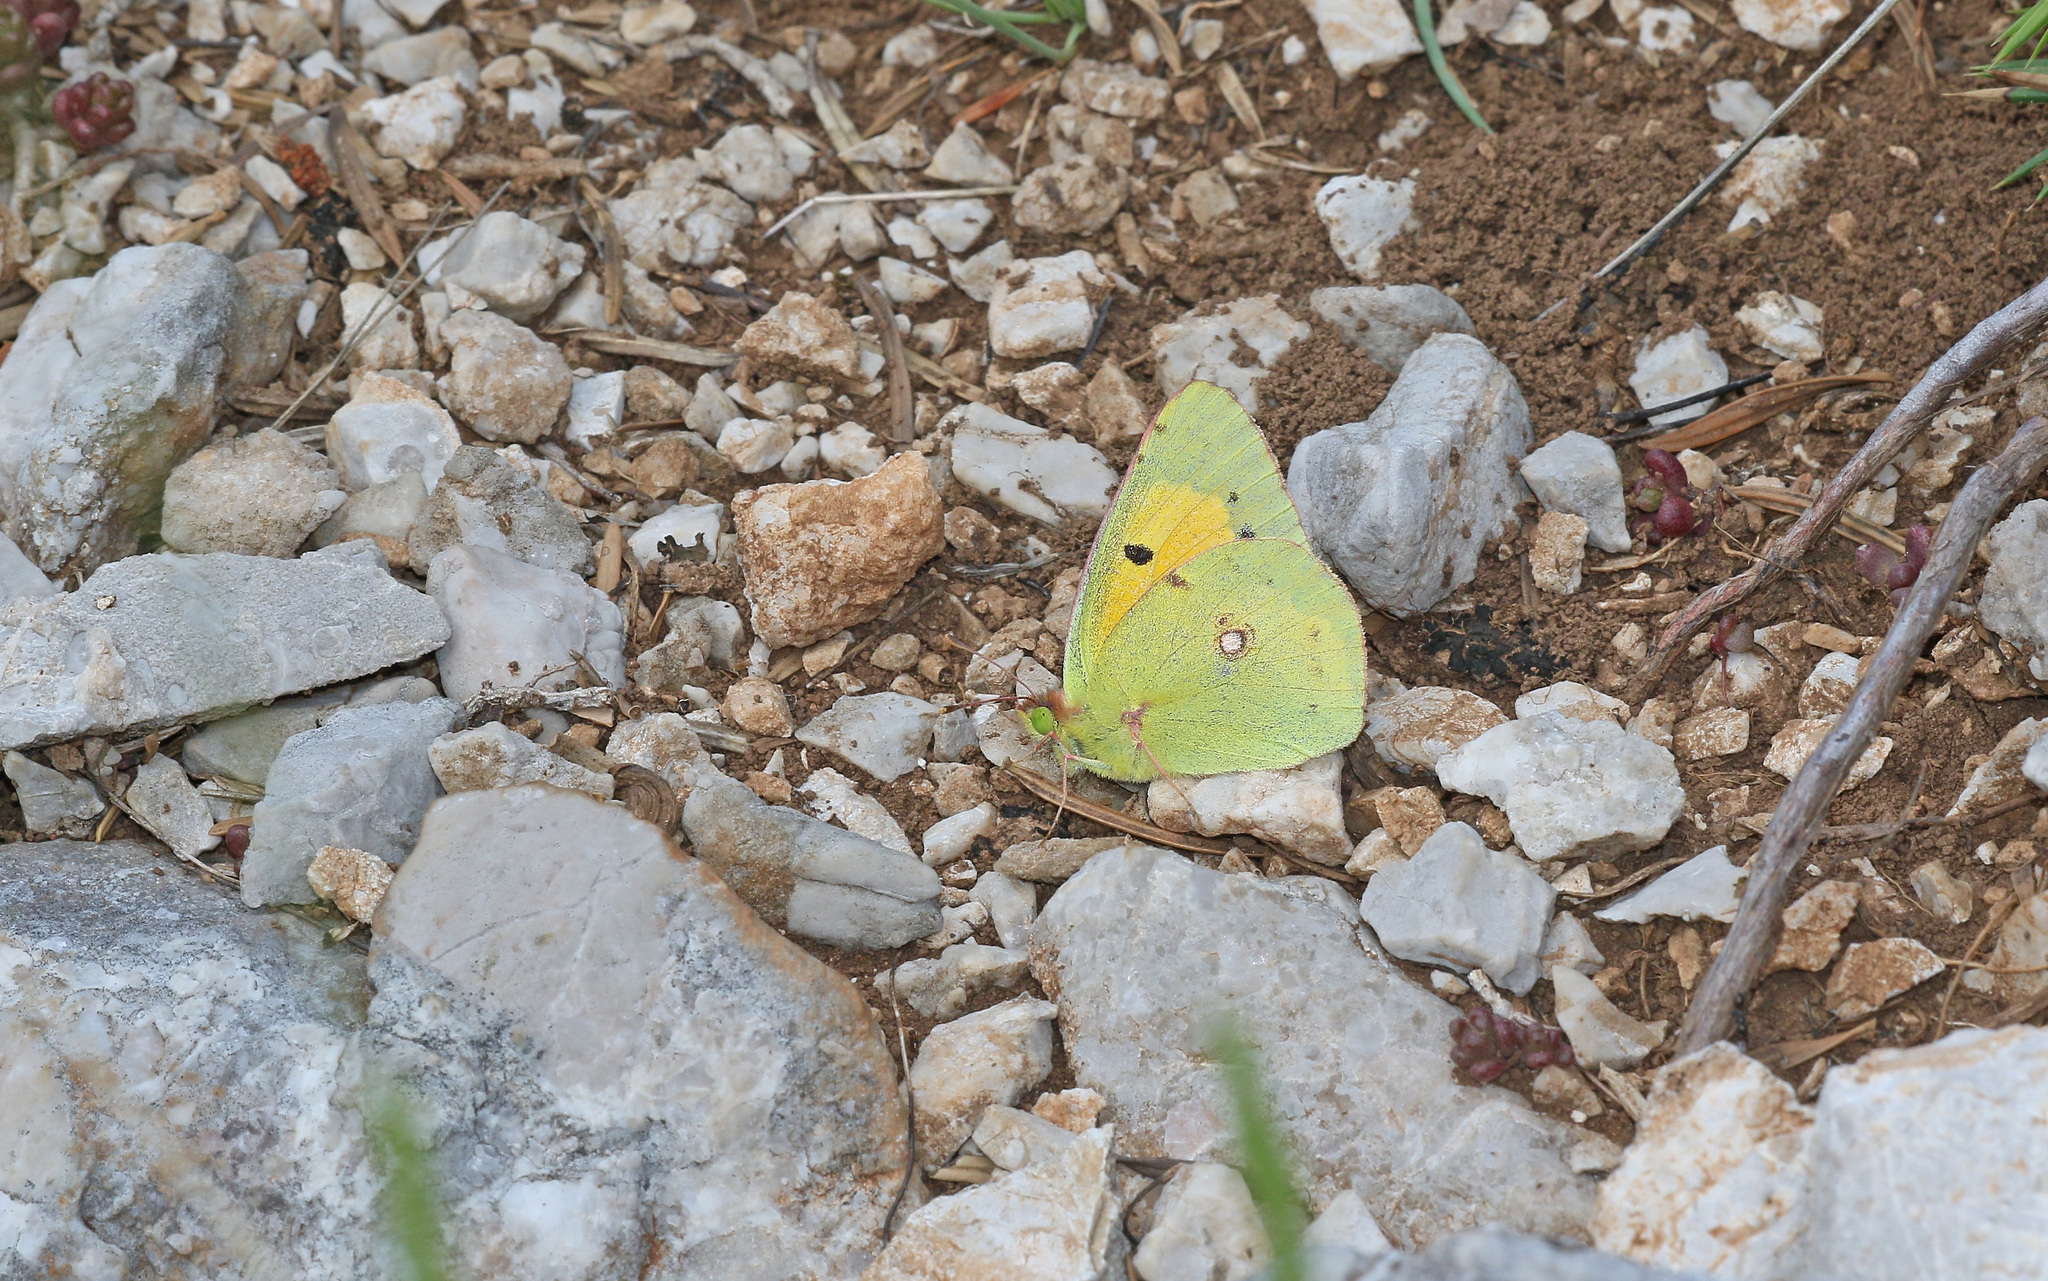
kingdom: Animalia
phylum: Arthropoda
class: Insecta
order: Lepidoptera
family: Pieridae
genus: Colias
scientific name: Colias croceus
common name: Clouded yellow
